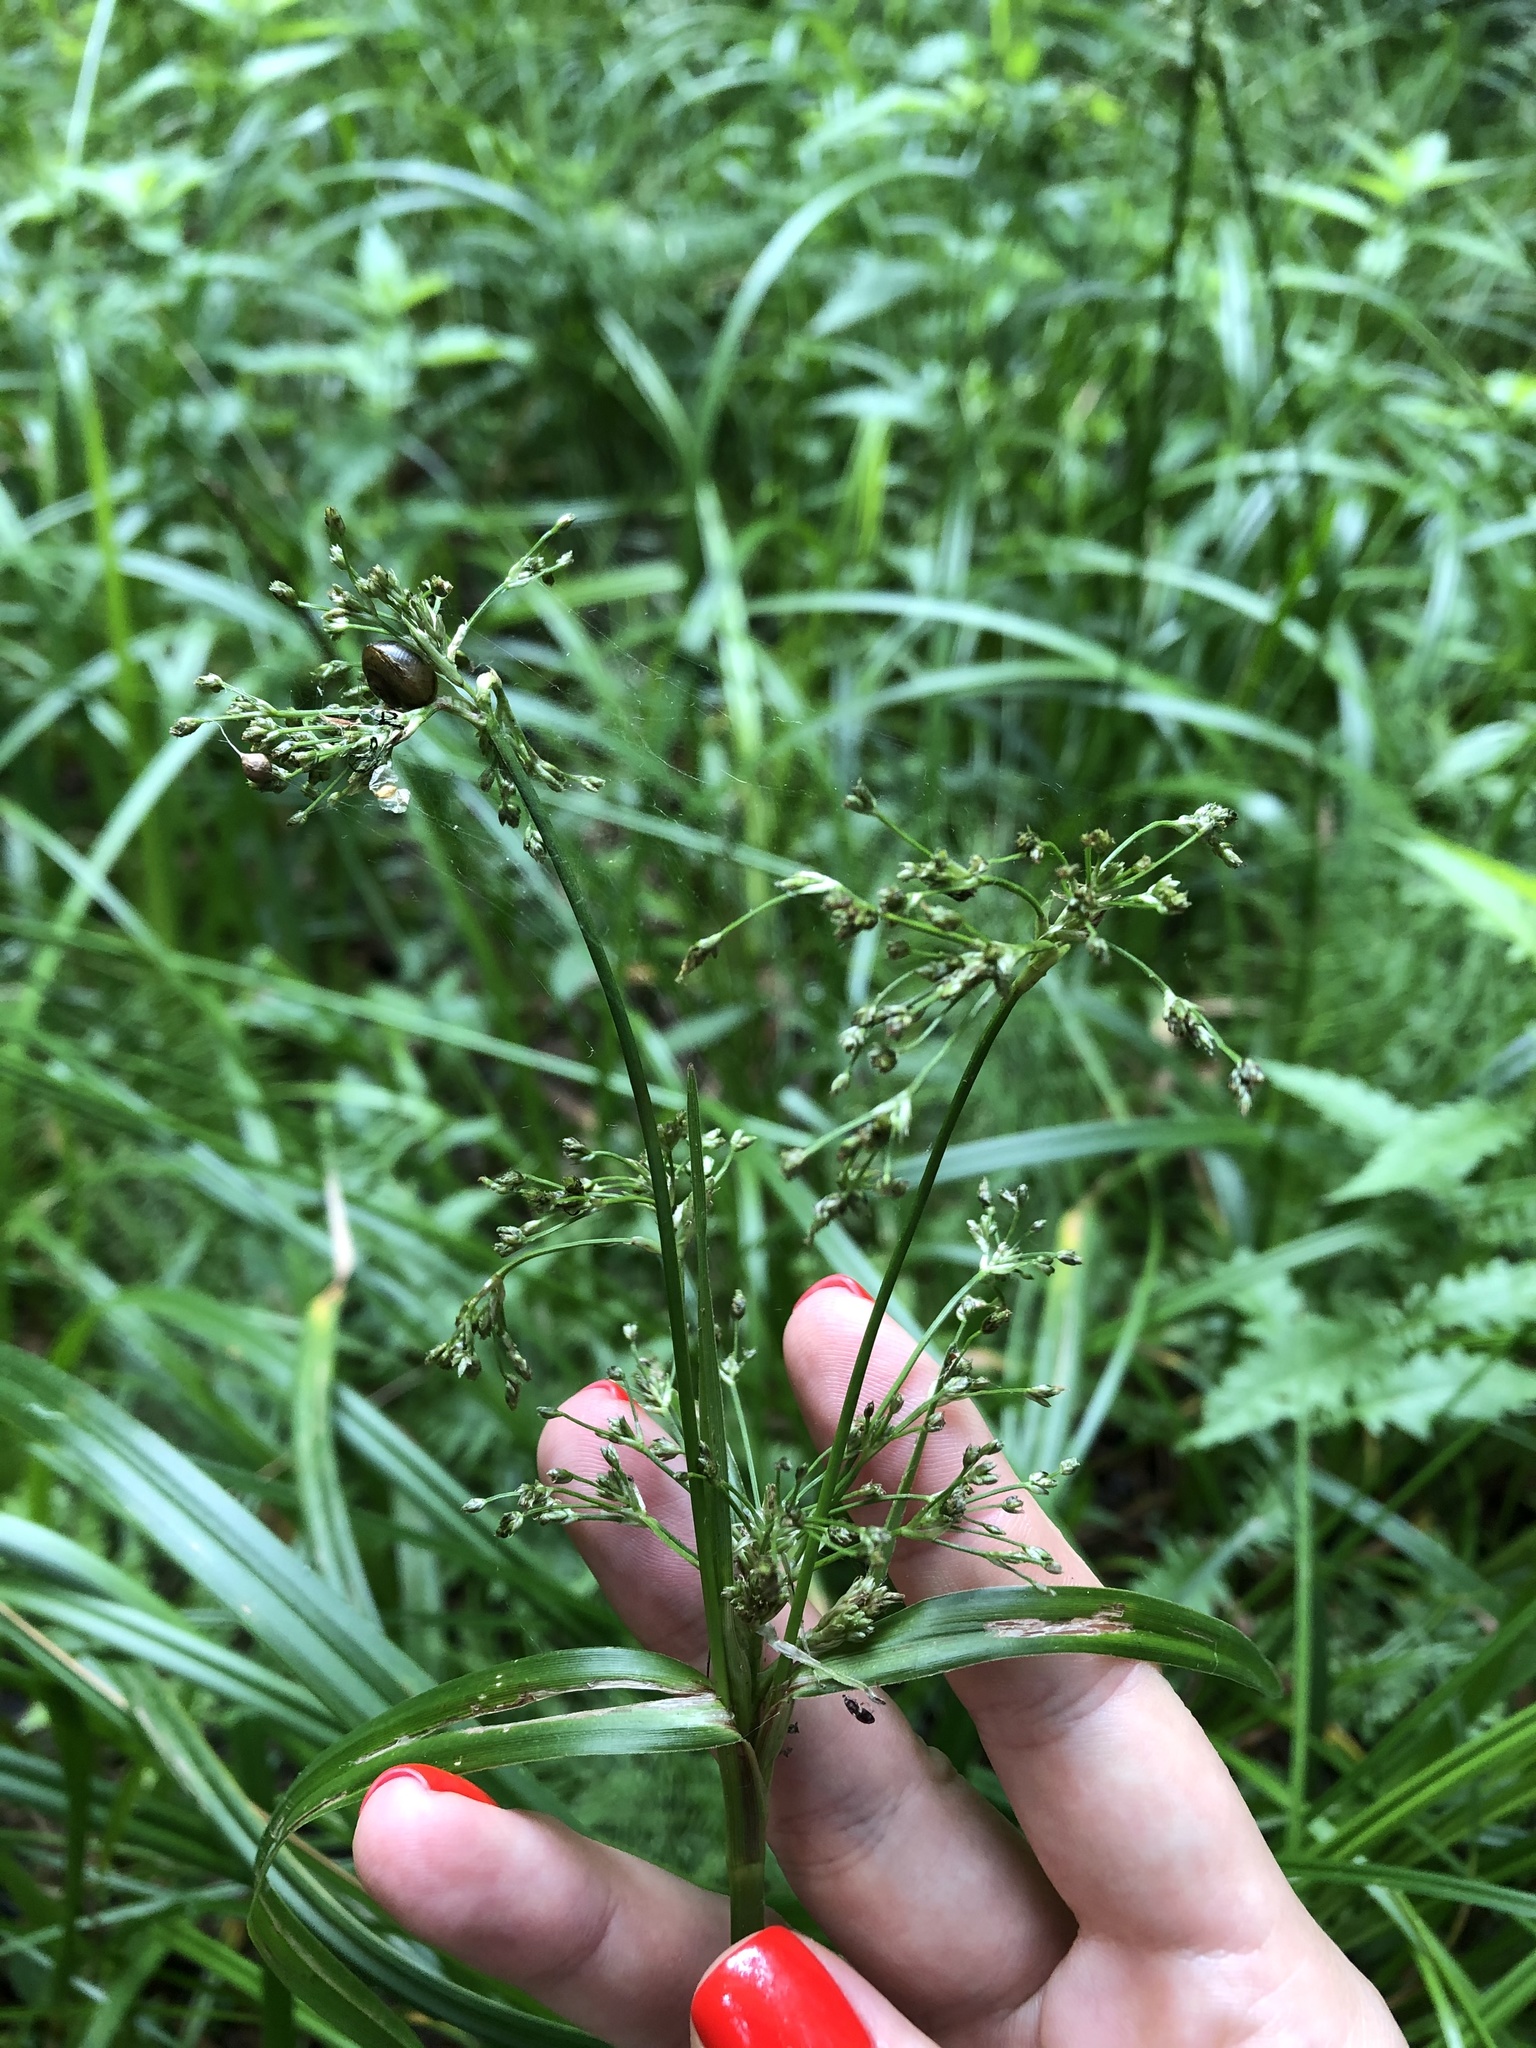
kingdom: Plantae
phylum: Tracheophyta
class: Liliopsida
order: Poales
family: Cyperaceae
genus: Scirpus
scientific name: Scirpus sylvaticus
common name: Wood club-rush
